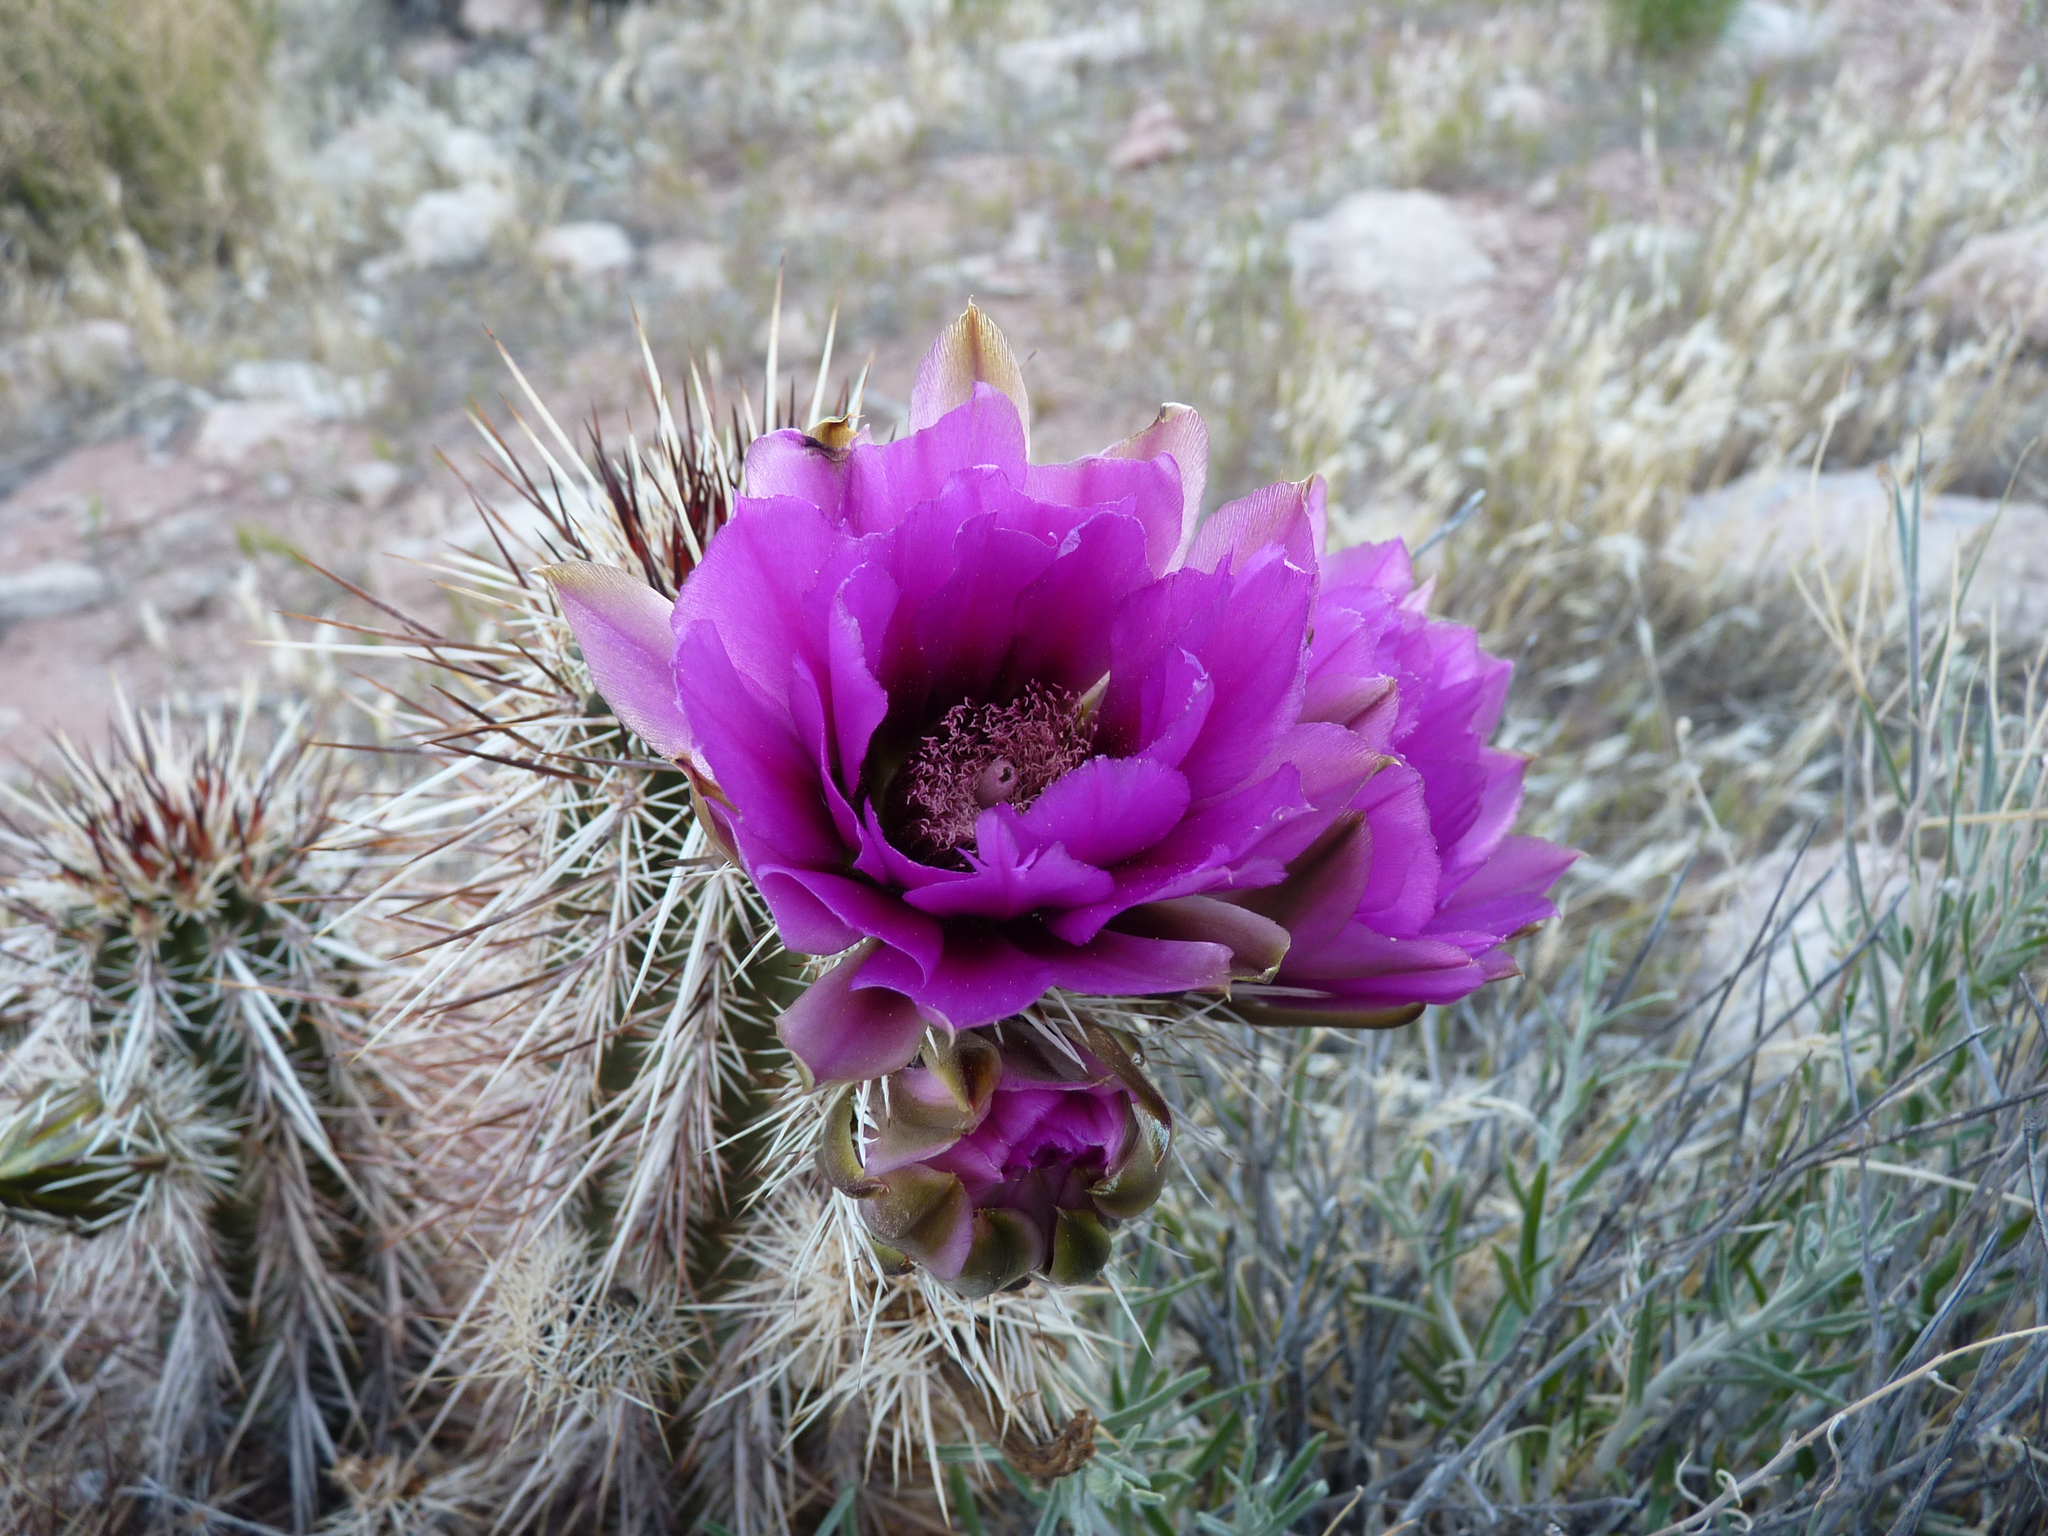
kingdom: Plantae
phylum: Tracheophyta
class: Magnoliopsida
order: Caryophyllales
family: Cactaceae
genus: Echinocereus
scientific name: Echinocereus engelmannii
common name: Engelmann's hedgehog cactus
